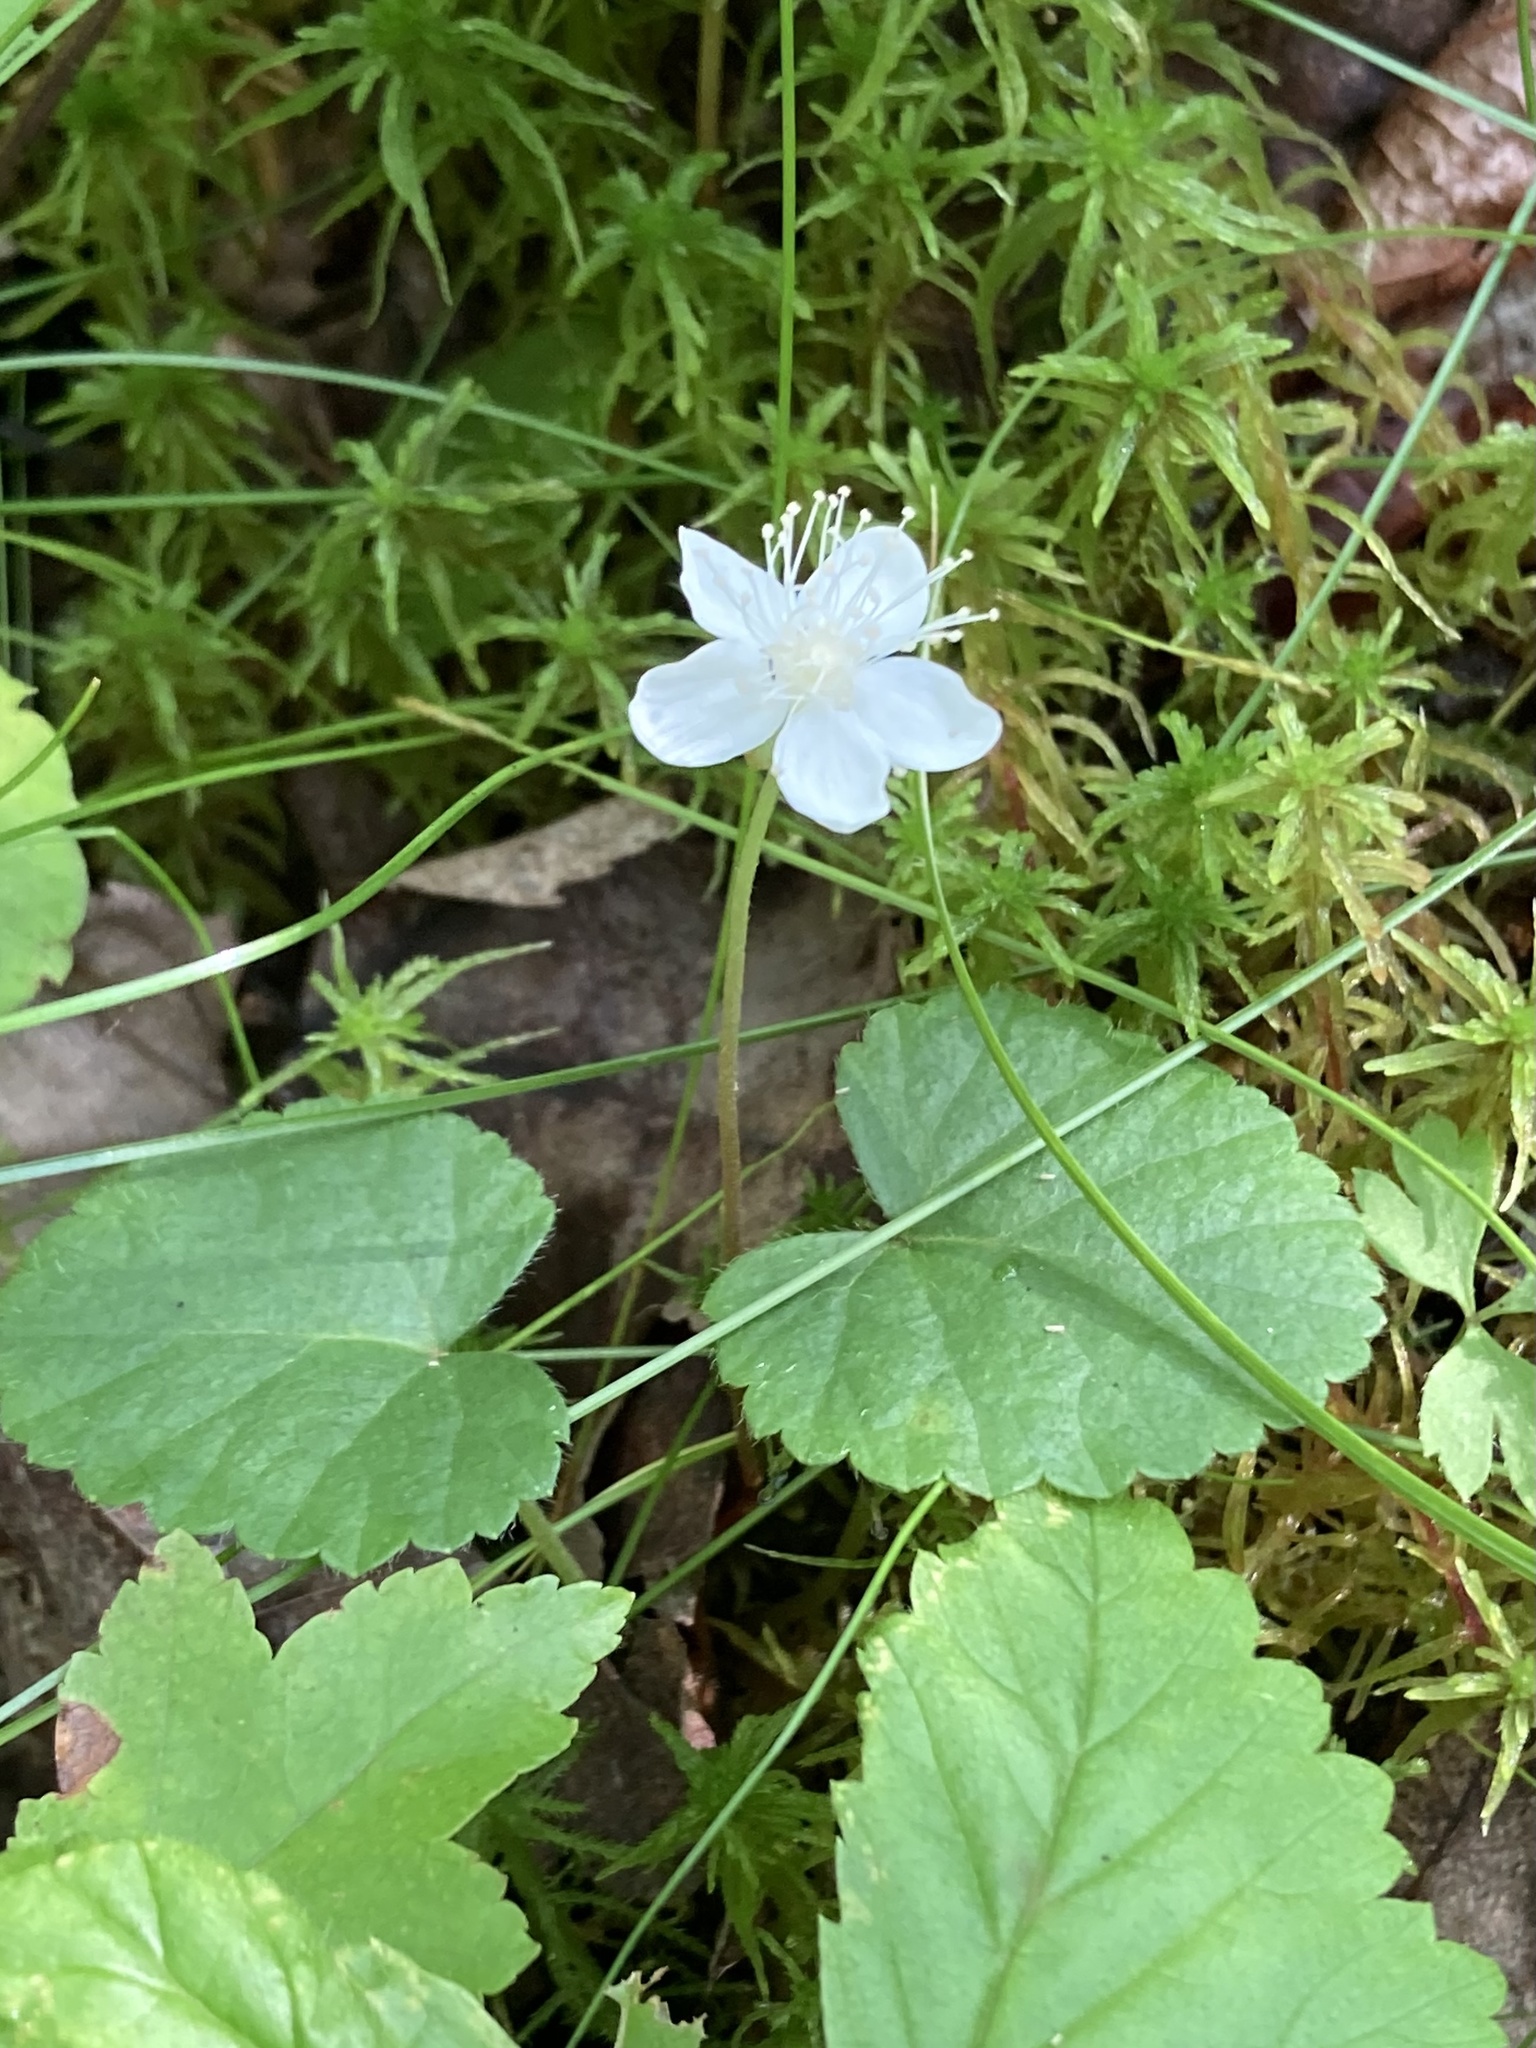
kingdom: Plantae
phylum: Tracheophyta
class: Magnoliopsida
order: Rosales
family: Rosaceae
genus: Dalibarda
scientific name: Dalibarda repens
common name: Dewdrop
